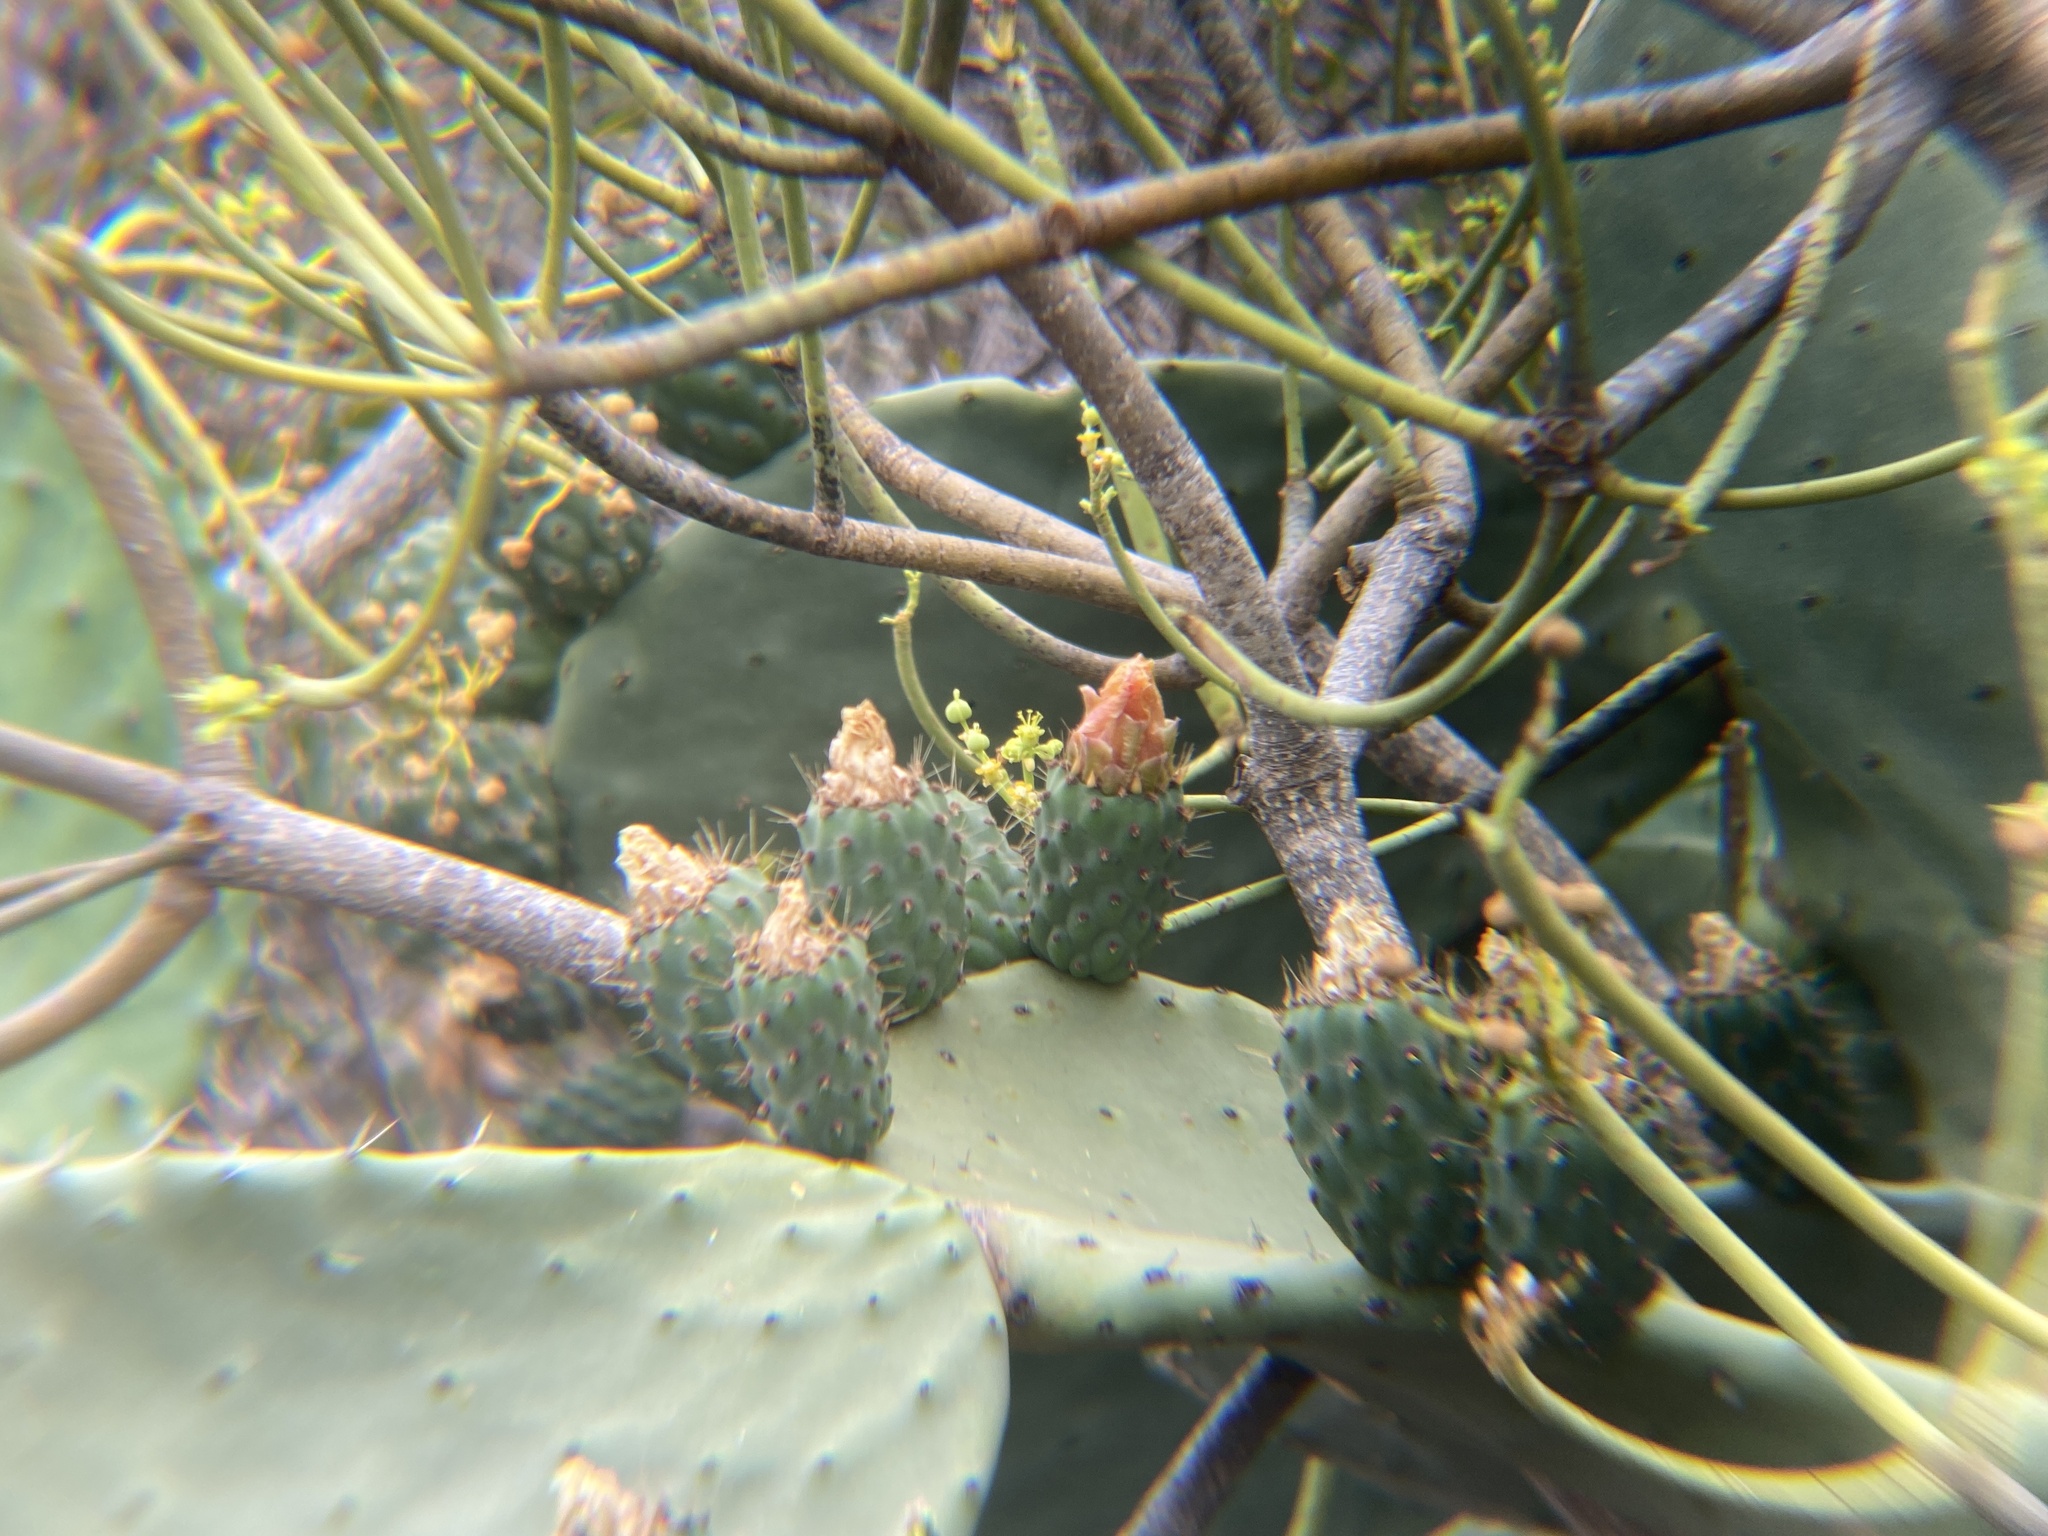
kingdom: Plantae
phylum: Tracheophyta
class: Magnoliopsida
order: Caryophyllales
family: Cactaceae
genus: Opuntia
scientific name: Opuntia ficus-indica
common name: Barbary fig
